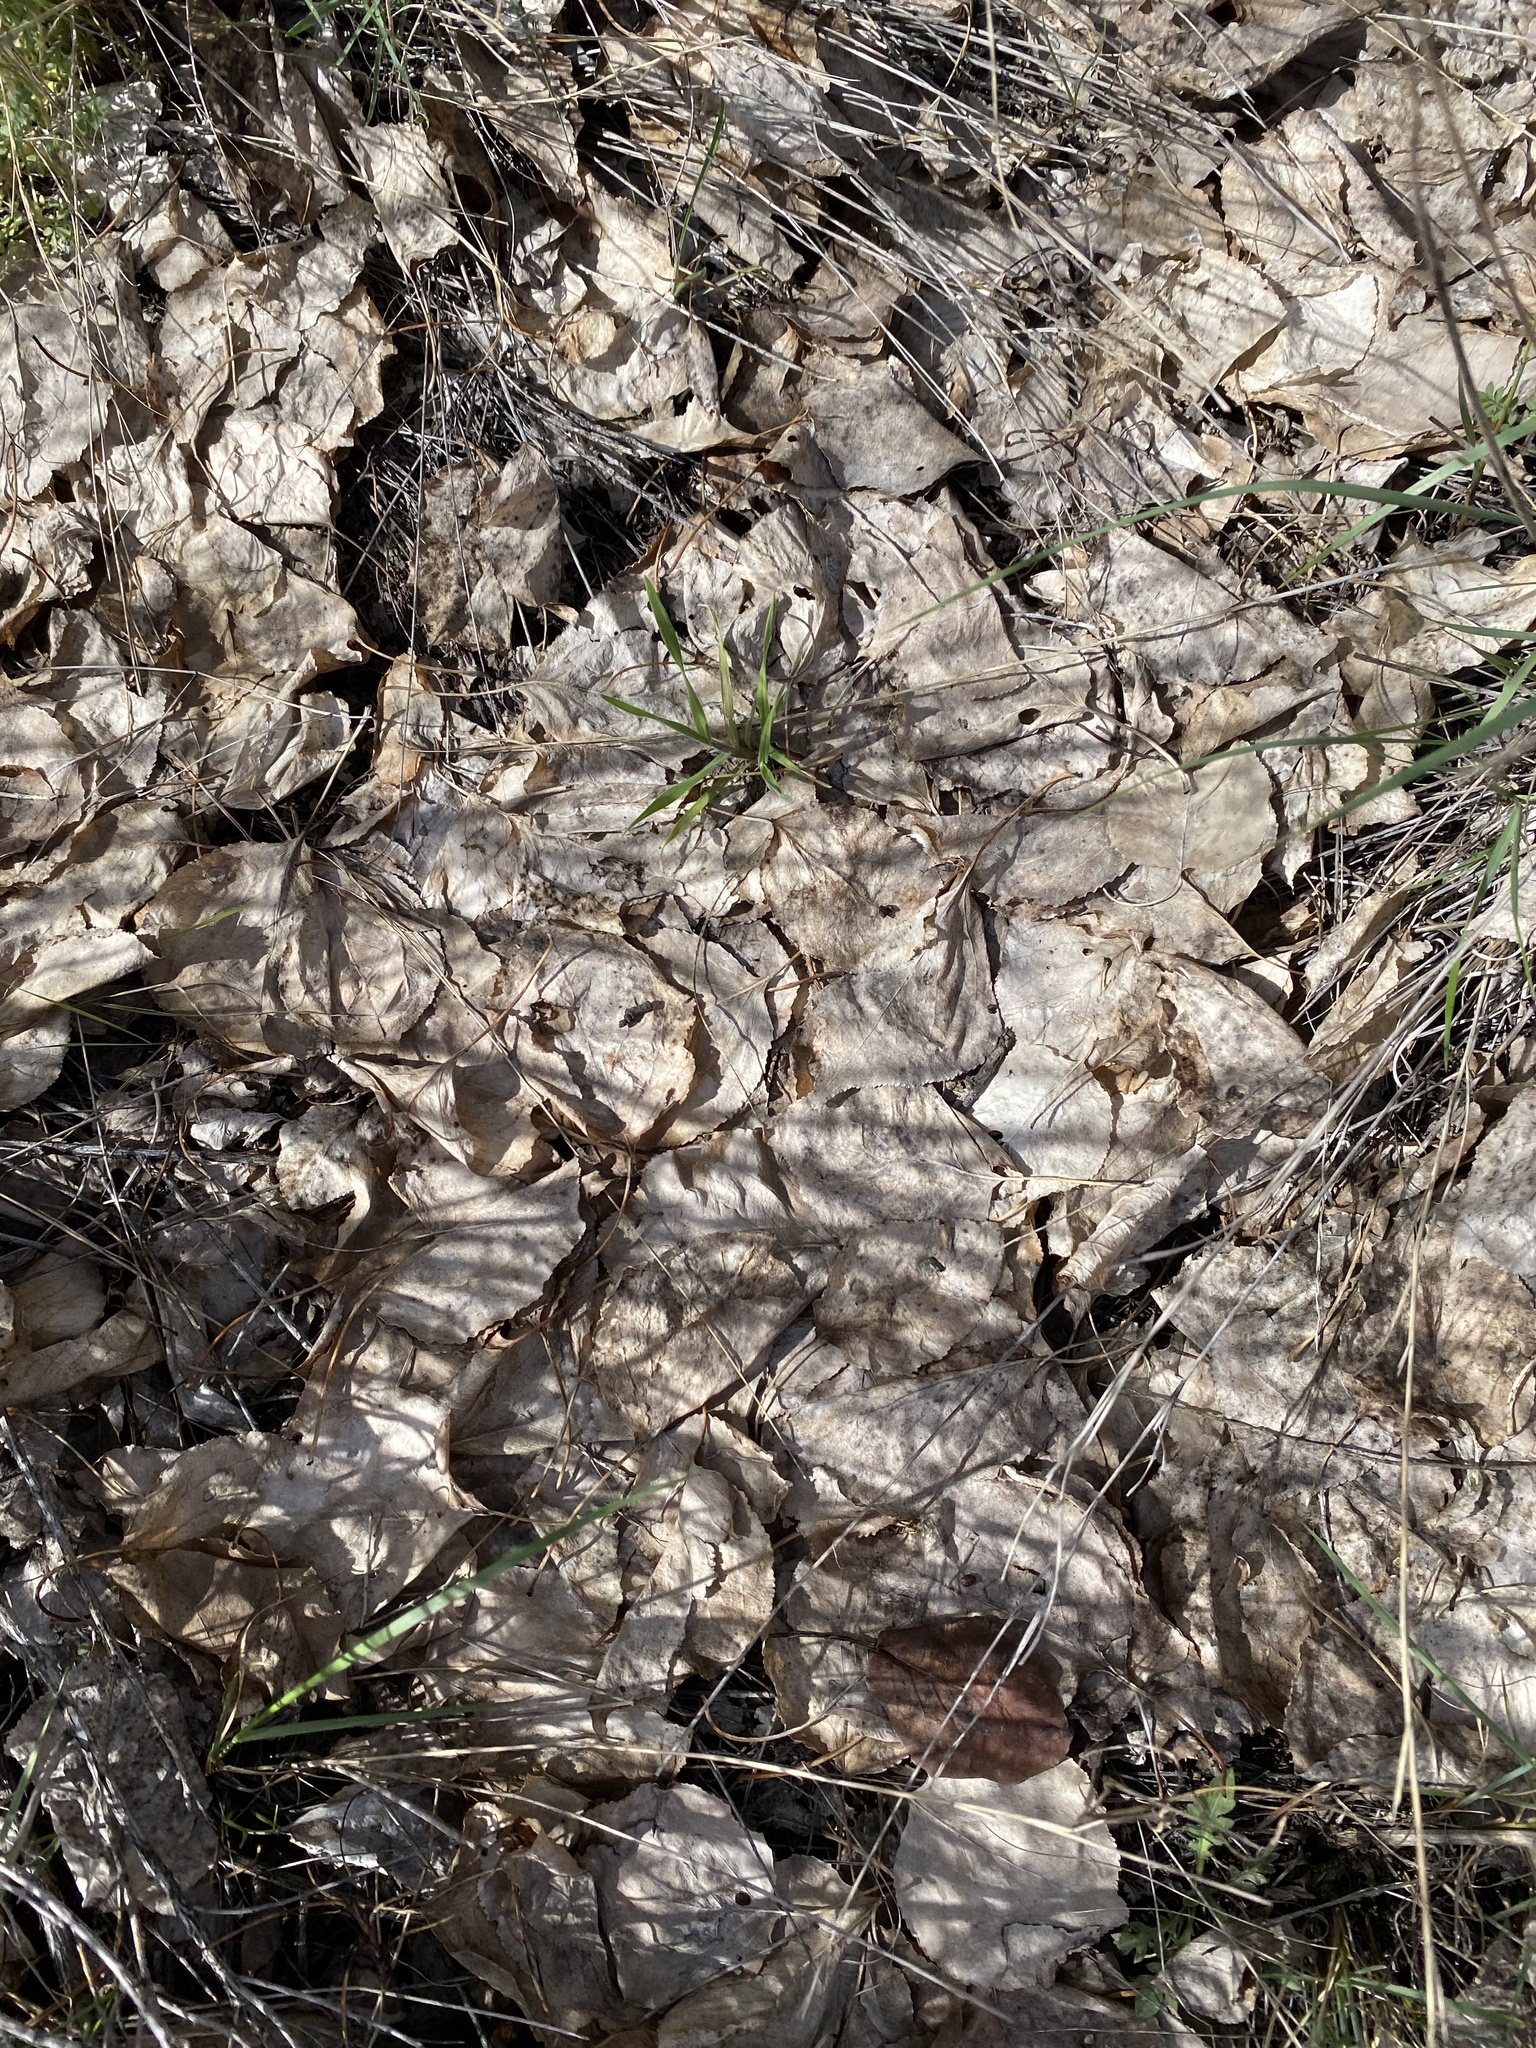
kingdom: Plantae
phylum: Tracheophyta
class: Magnoliopsida
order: Rosales
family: Rosaceae
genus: Prunus
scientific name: Prunus armeniaca
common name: Apricot
